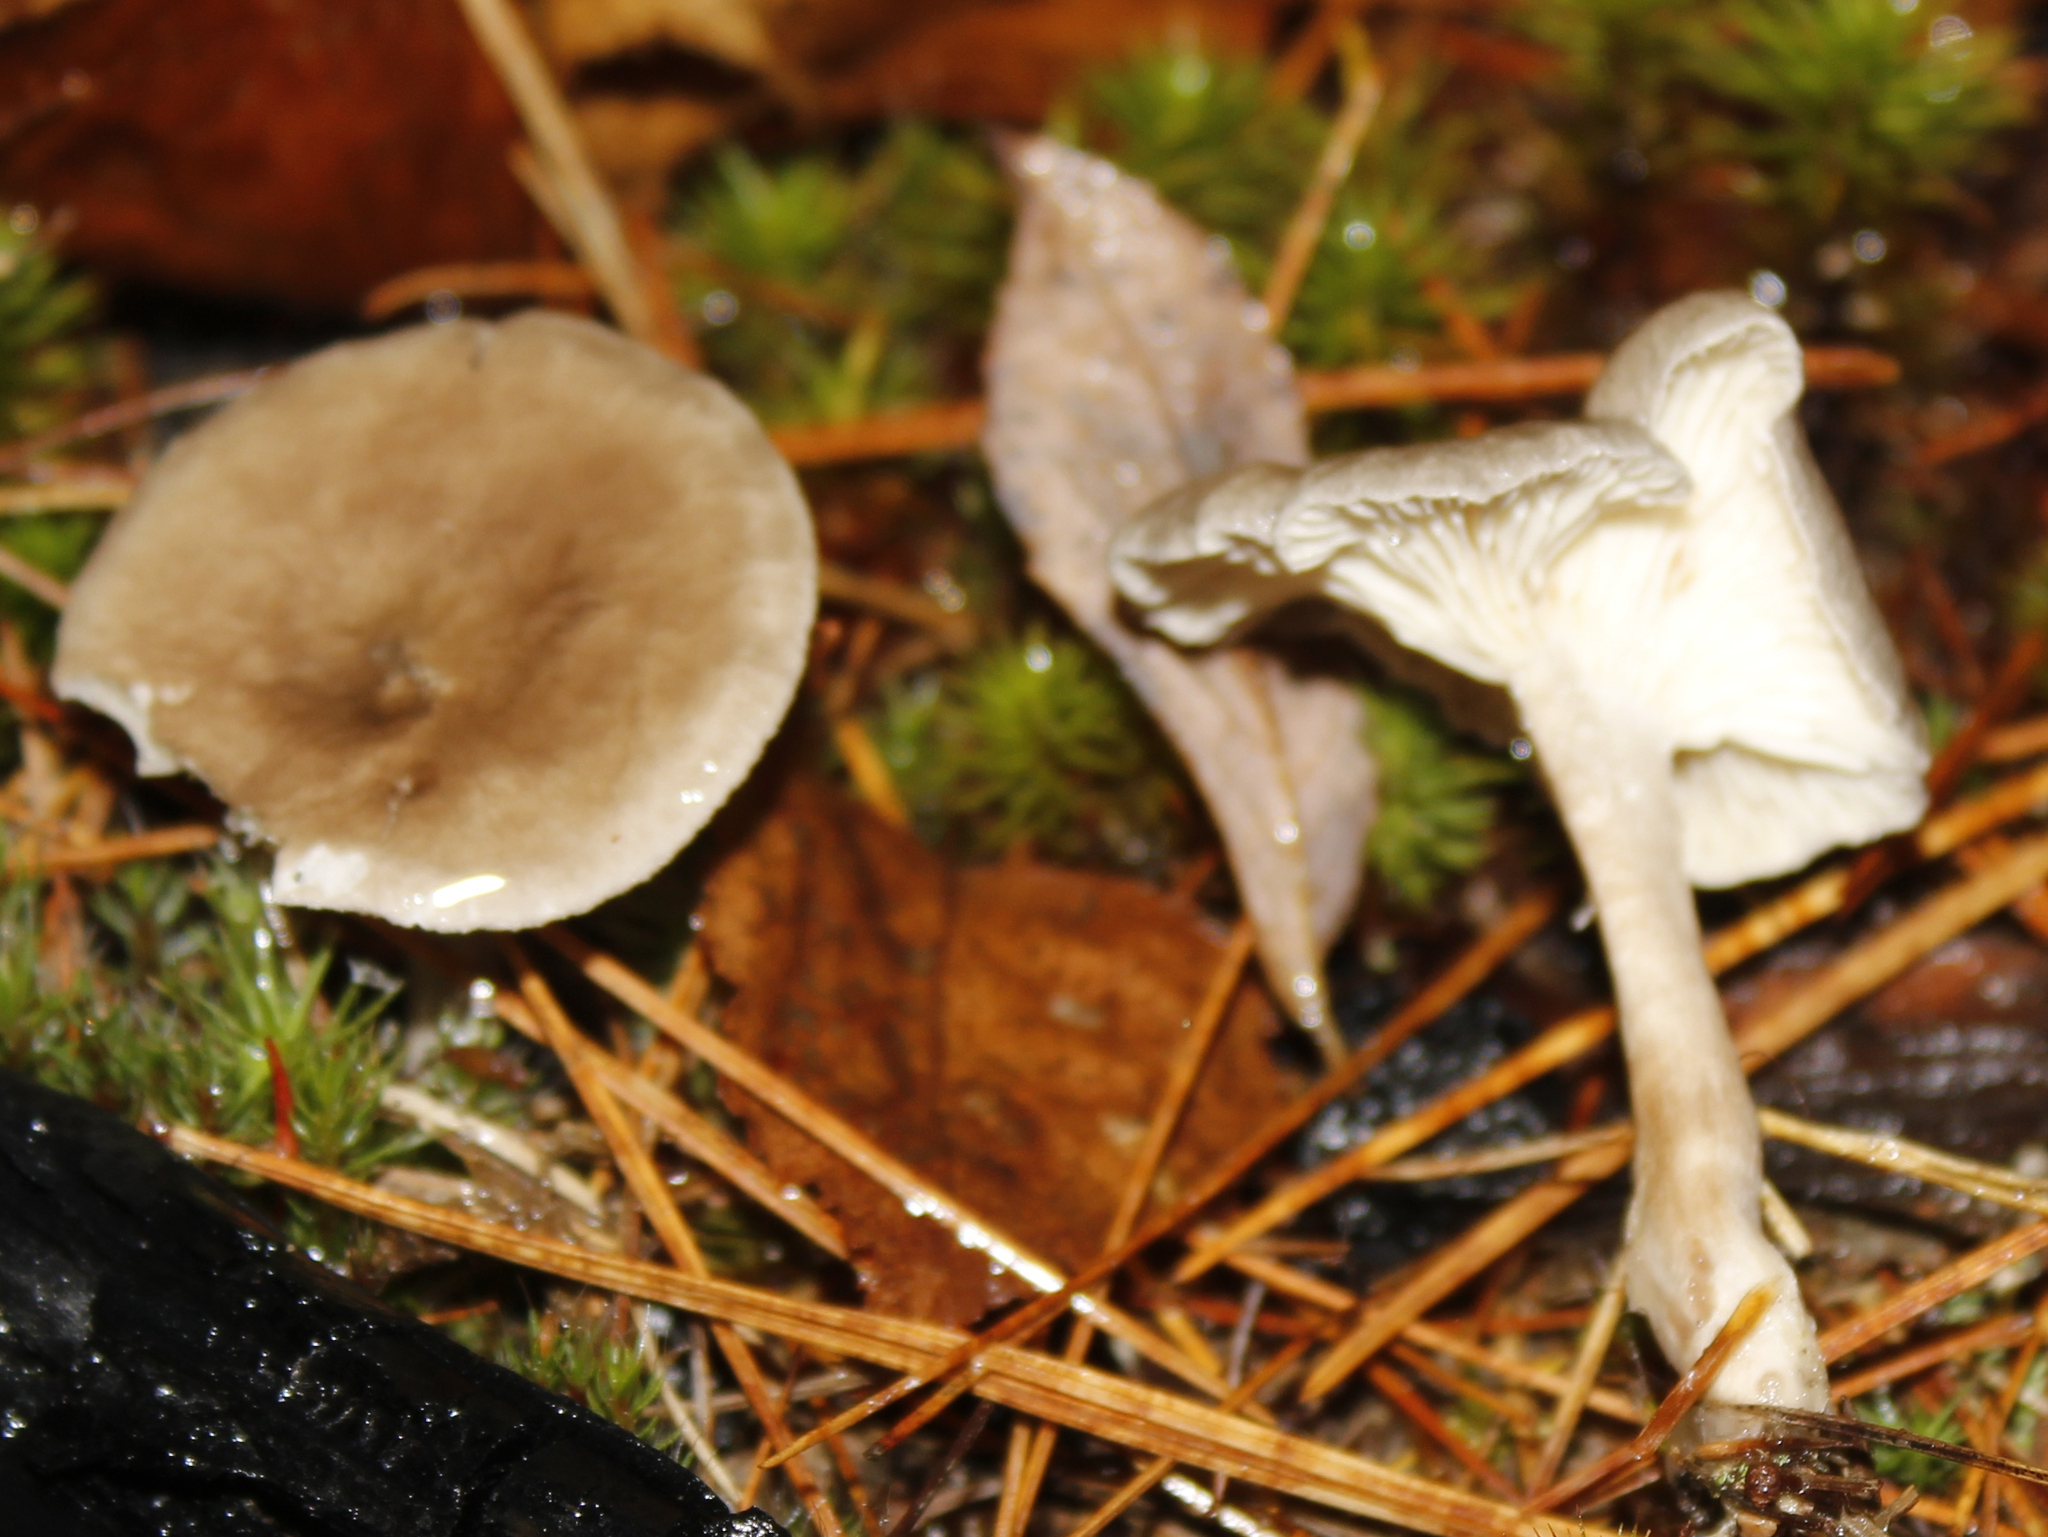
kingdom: Fungi
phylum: Basidiomycota
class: Agaricomycetes
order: Agaricales
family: Hygrophoraceae
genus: Cantharellula
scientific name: Cantharellula umbonata
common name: The humpback
